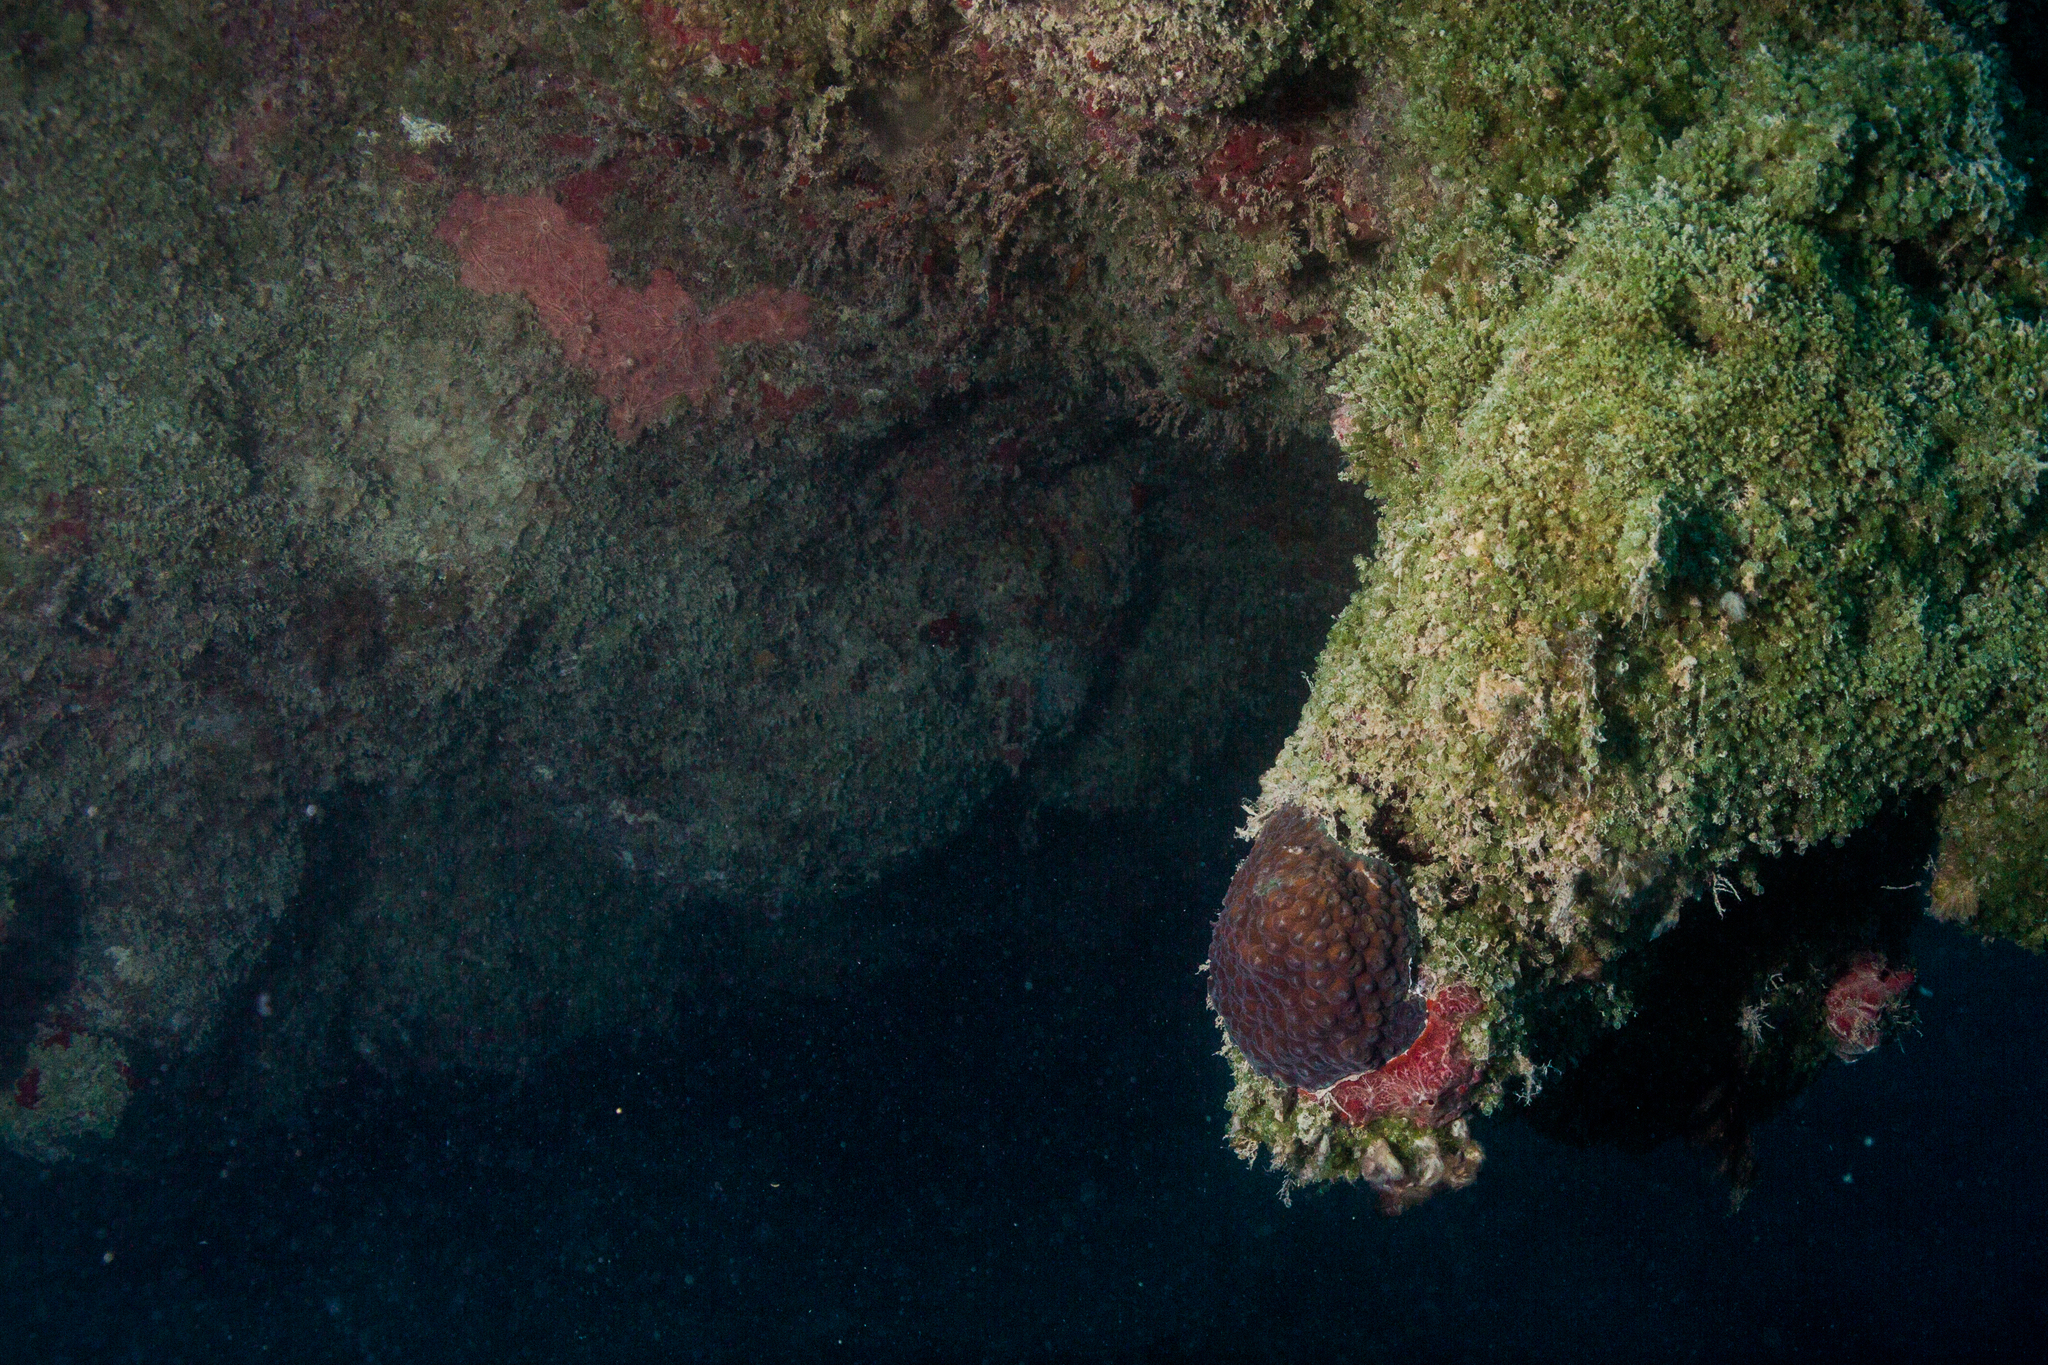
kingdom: Animalia
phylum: Cnidaria
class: Anthozoa
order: Scleractinia
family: Montastraeidae
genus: Montastraea
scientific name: Montastraea cavernosa
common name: Great star coral
